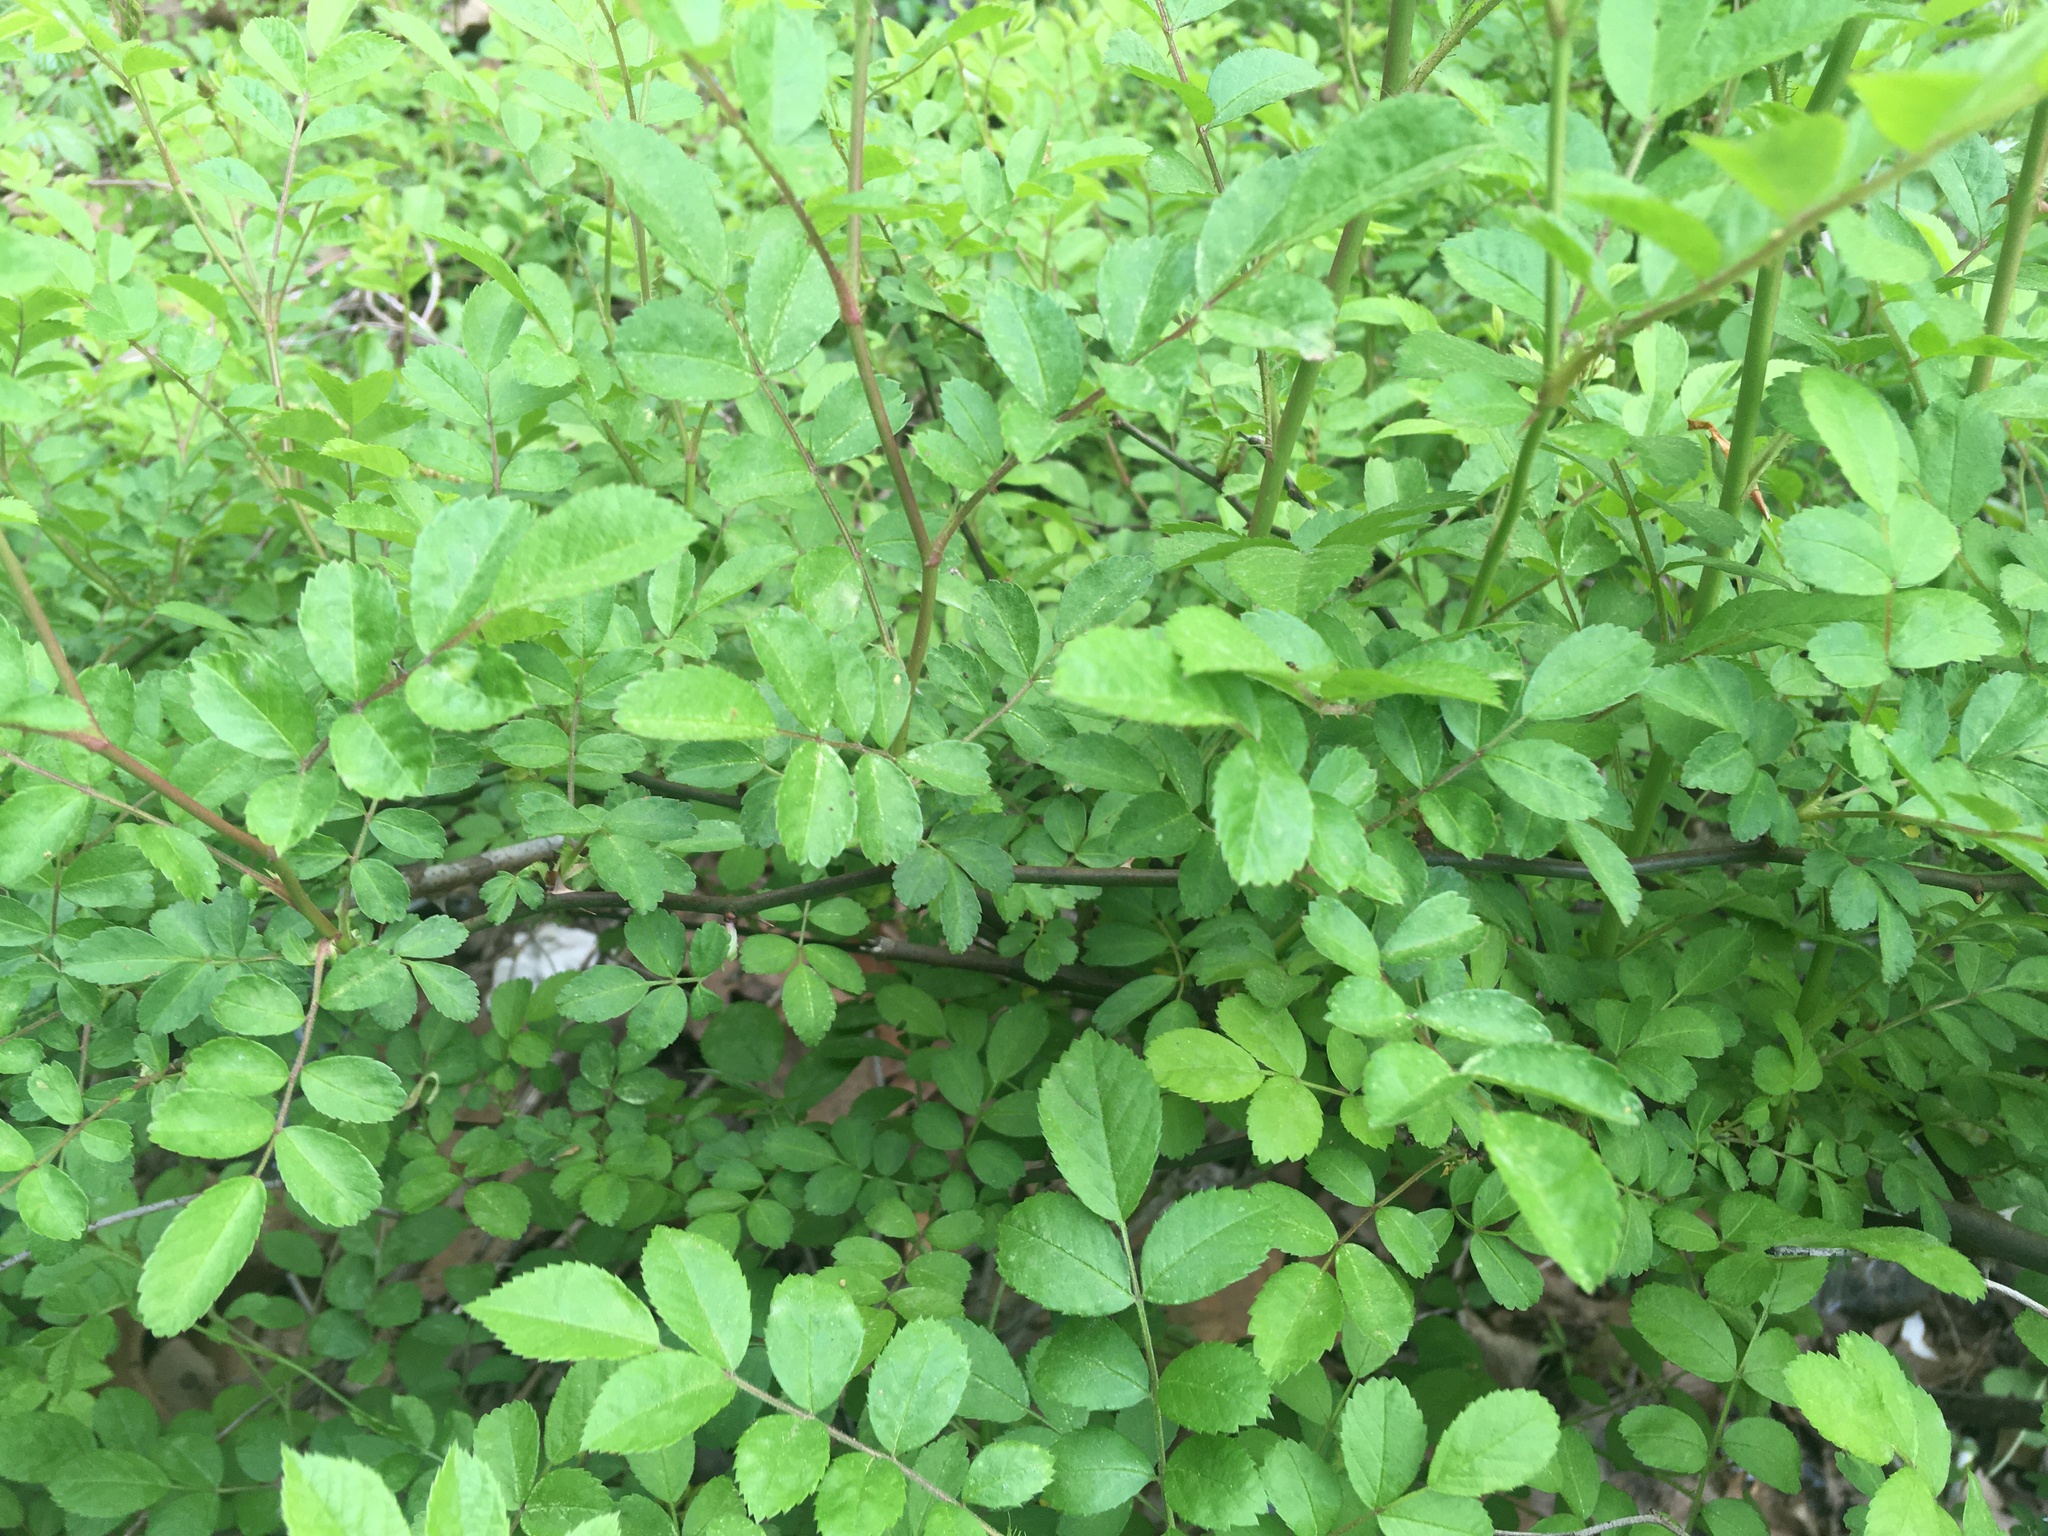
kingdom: Plantae
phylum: Tracheophyta
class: Magnoliopsida
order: Rosales
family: Rosaceae
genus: Rosa
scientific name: Rosa multiflora
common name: Multiflora rose
